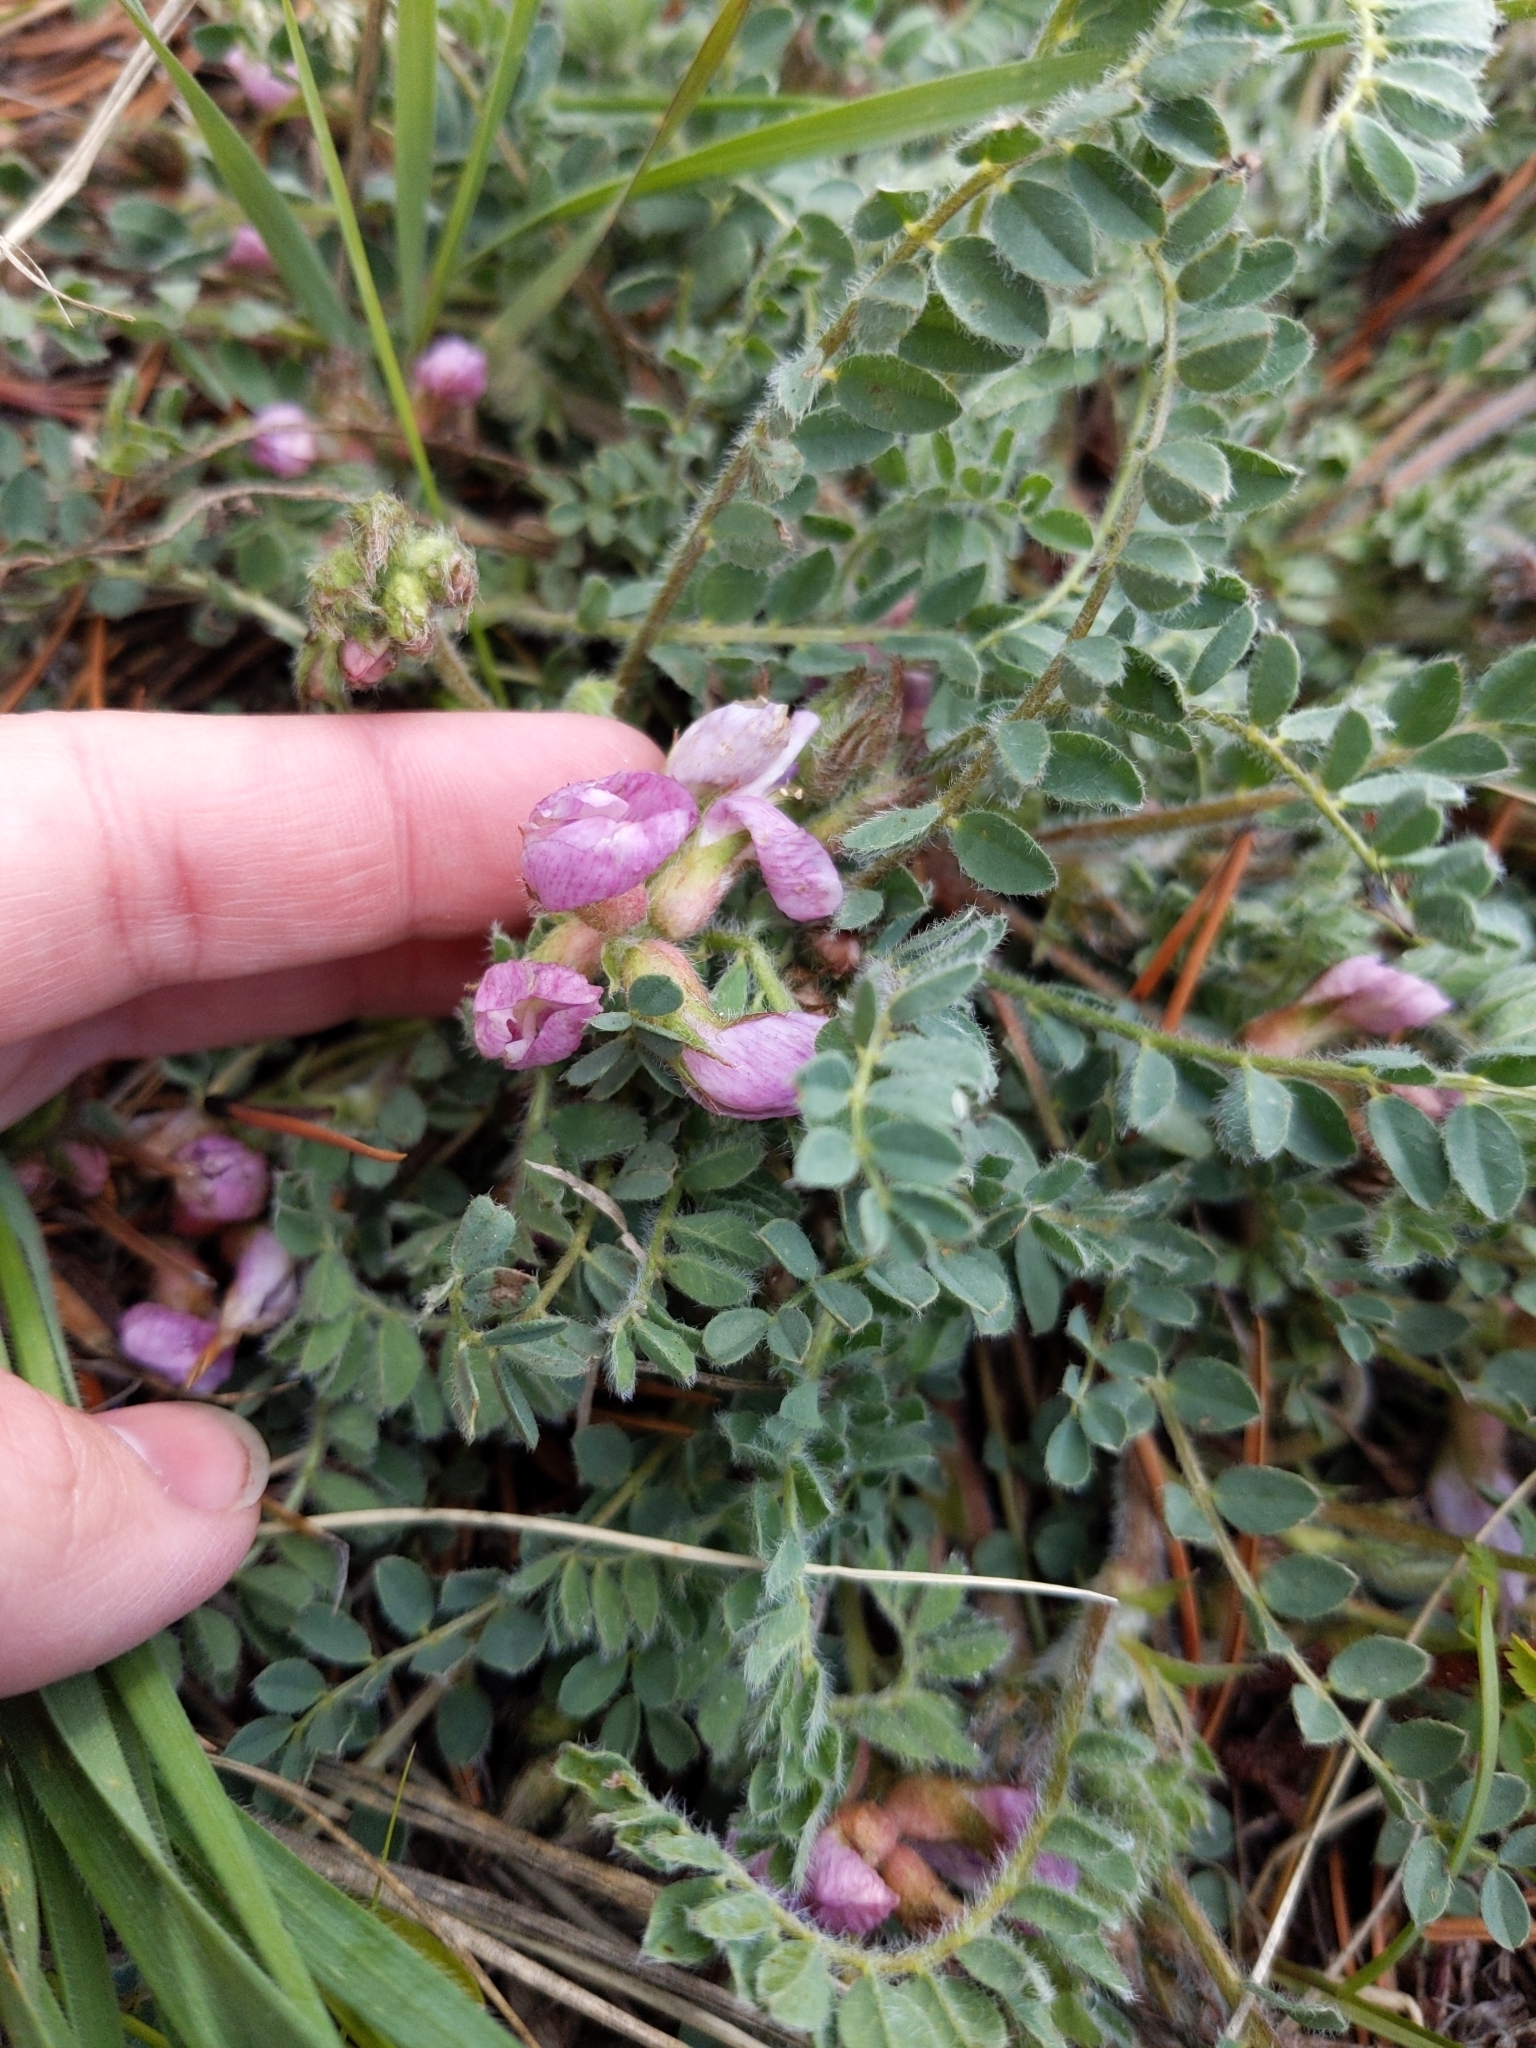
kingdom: Plantae
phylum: Tracheophyta
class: Magnoliopsida
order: Fabales
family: Fabaceae
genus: Astragalus
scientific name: Astragalus parryi
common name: Parry milk-vetch
